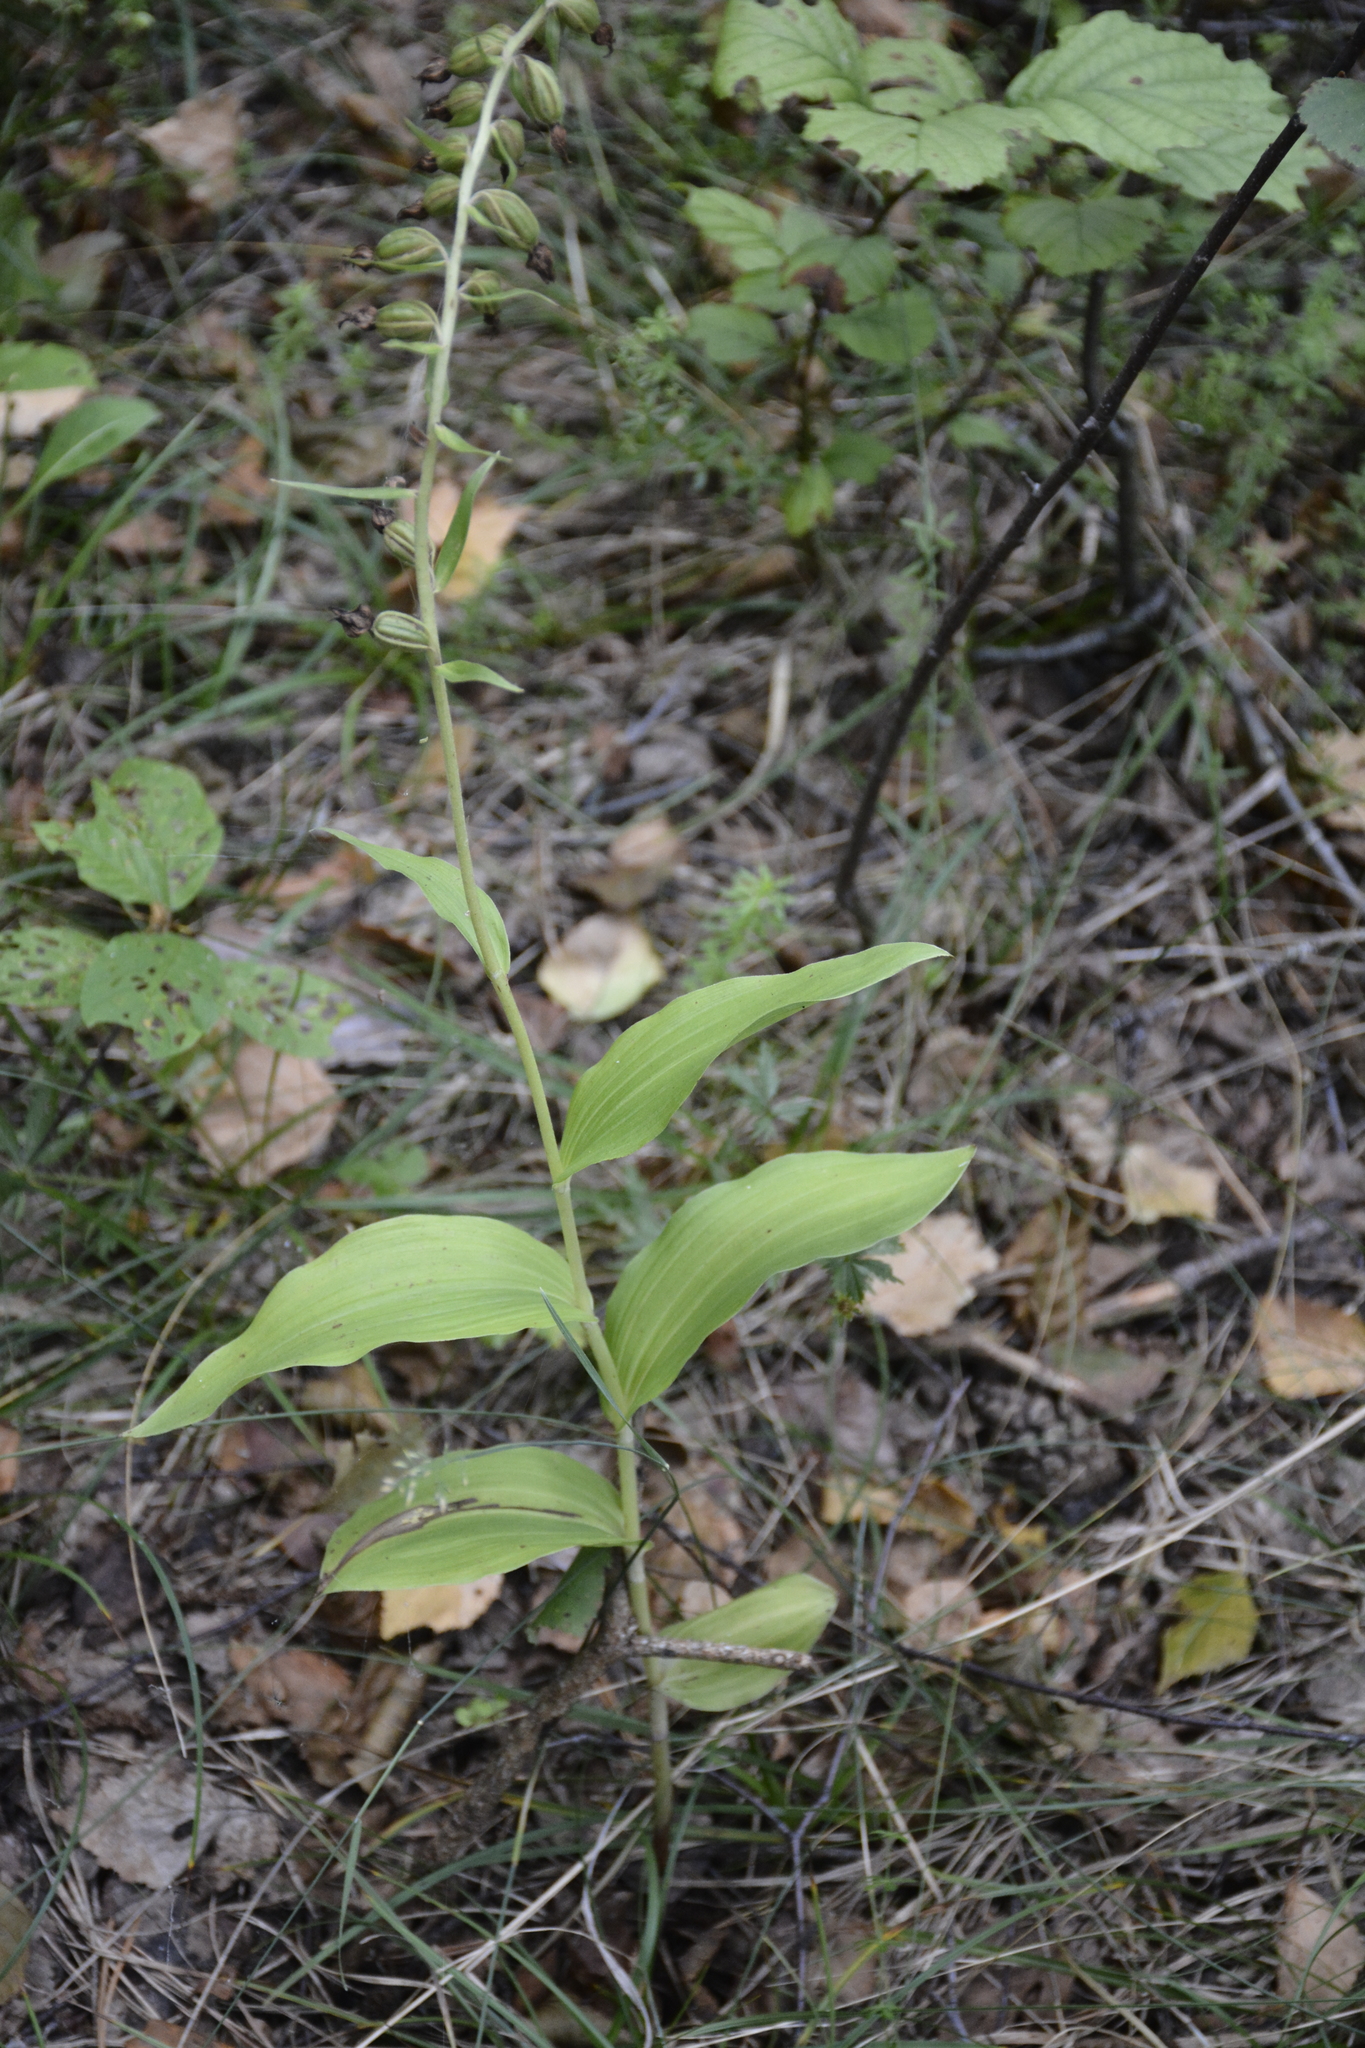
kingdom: Plantae
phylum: Tracheophyta
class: Liliopsida
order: Asparagales
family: Orchidaceae
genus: Epipactis
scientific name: Epipactis helleborine
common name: Broad-leaved helleborine
